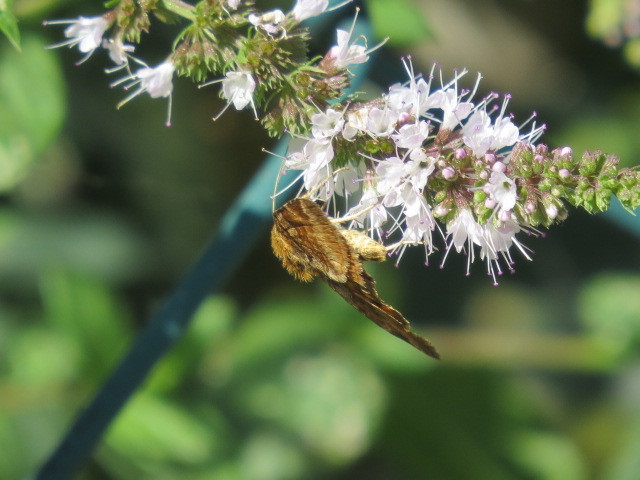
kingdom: Animalia
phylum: Arthropoda
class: Insecta
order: Lepidoptera
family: Erebidae
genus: Euclidia
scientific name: Euclidia glyphica
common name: Burnet companion
